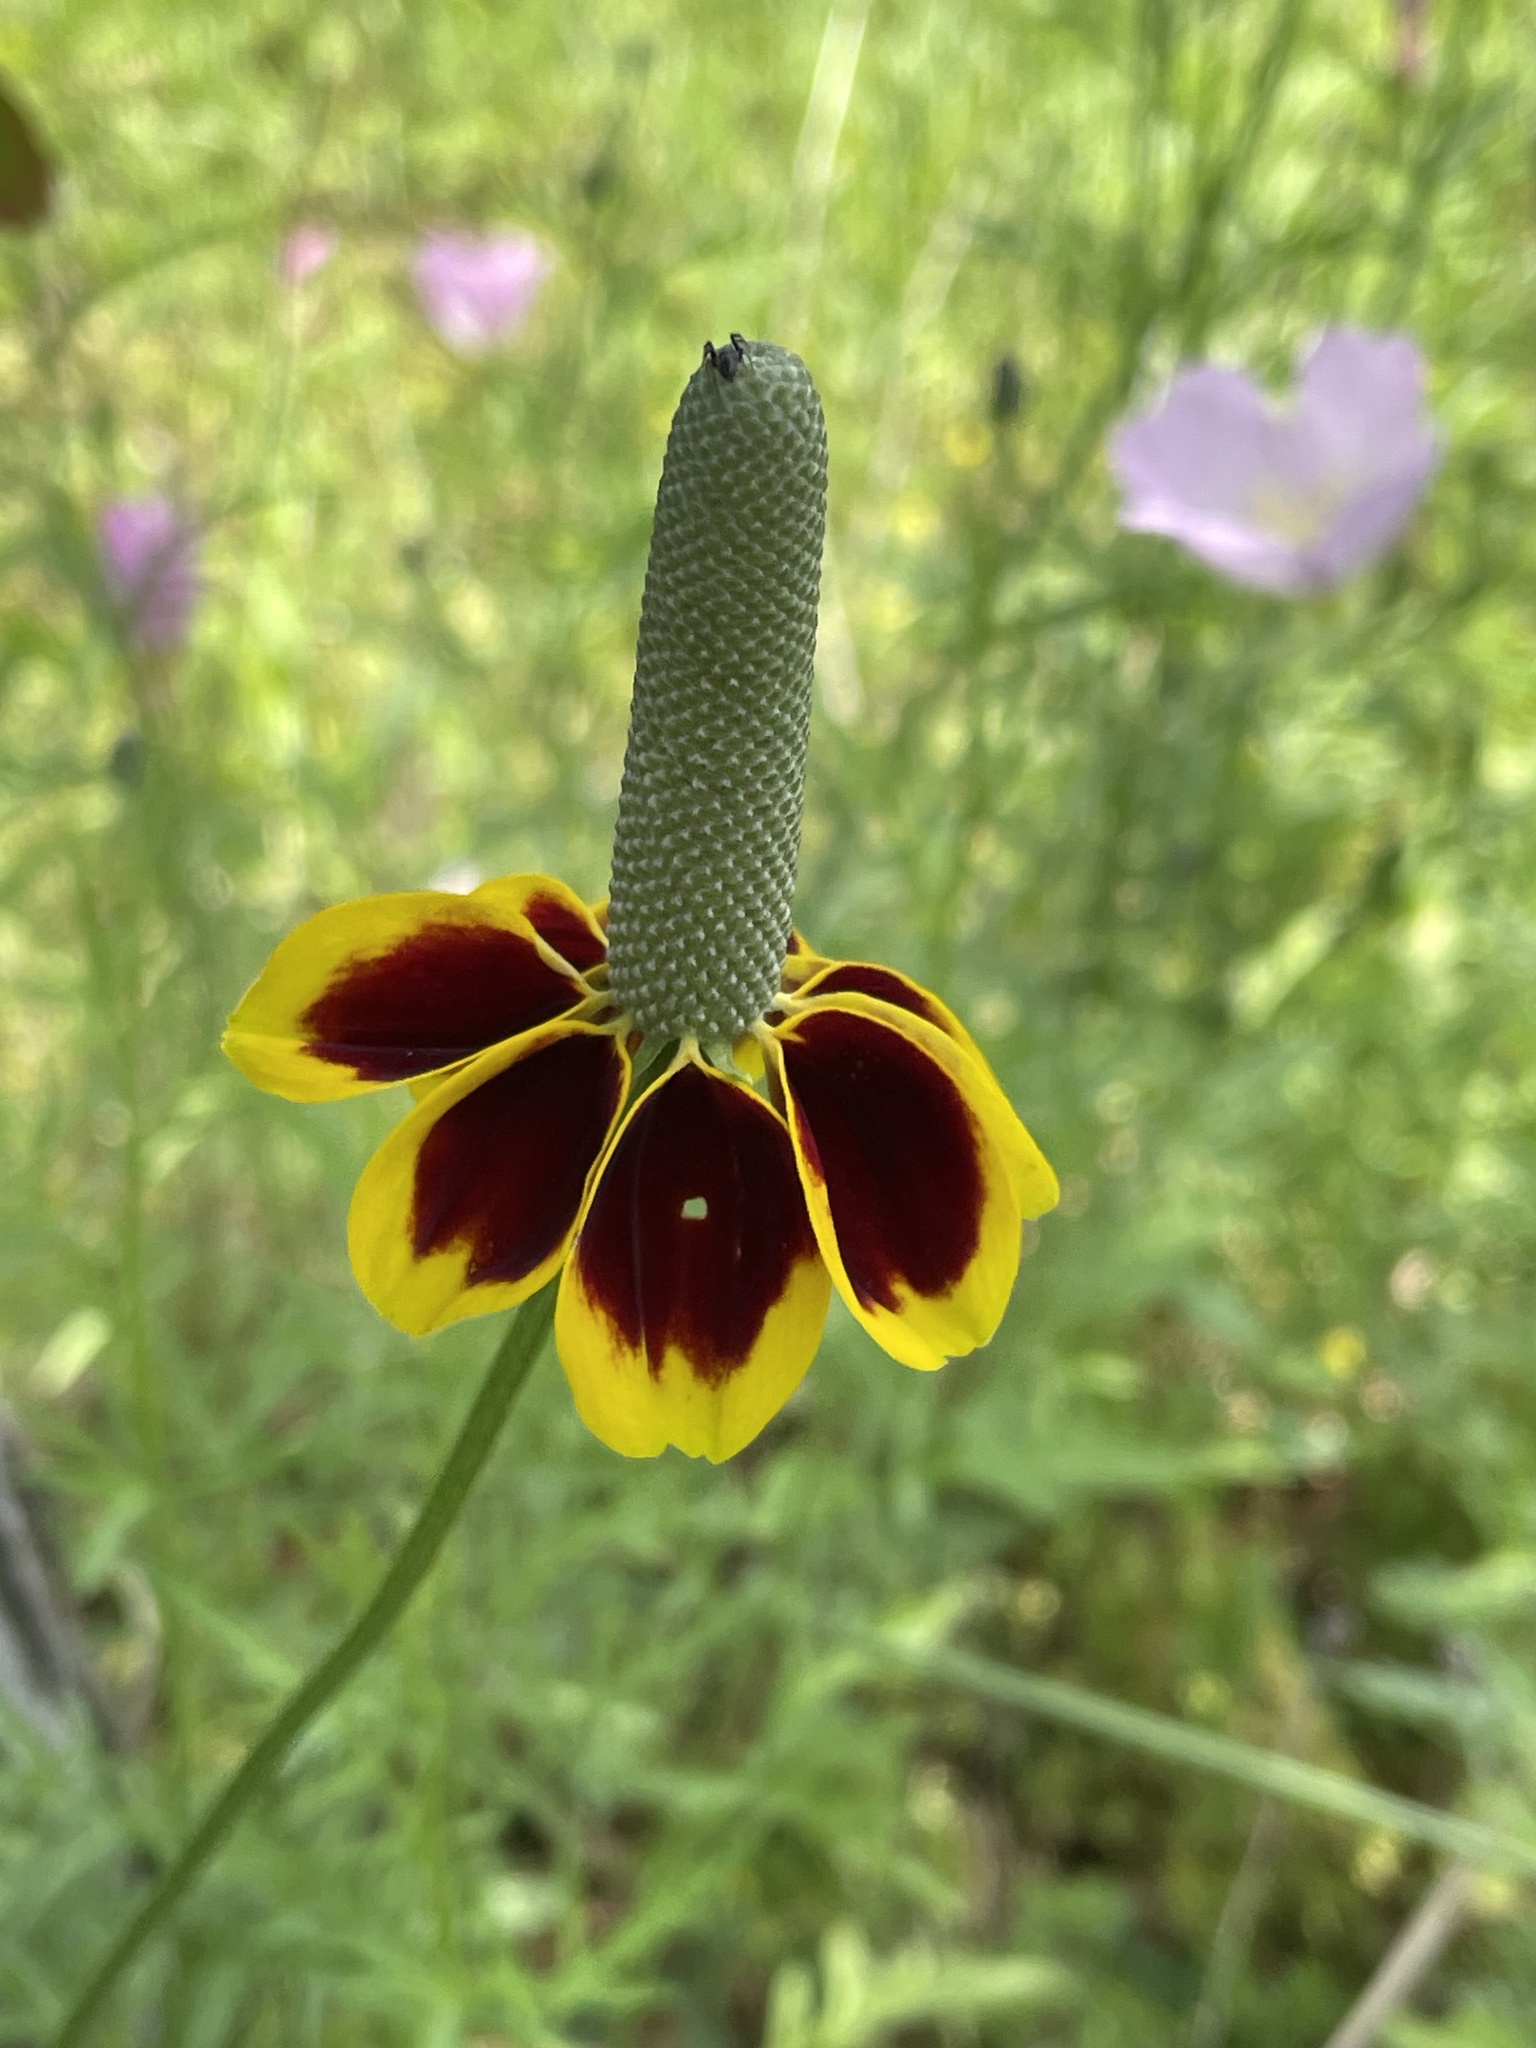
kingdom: Plantae
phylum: Tracheophyta
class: Magnoliopsida
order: Asterales
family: Asteraceae
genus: Ratibida
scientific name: Ratibida columnifera
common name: Prairie coneflower
